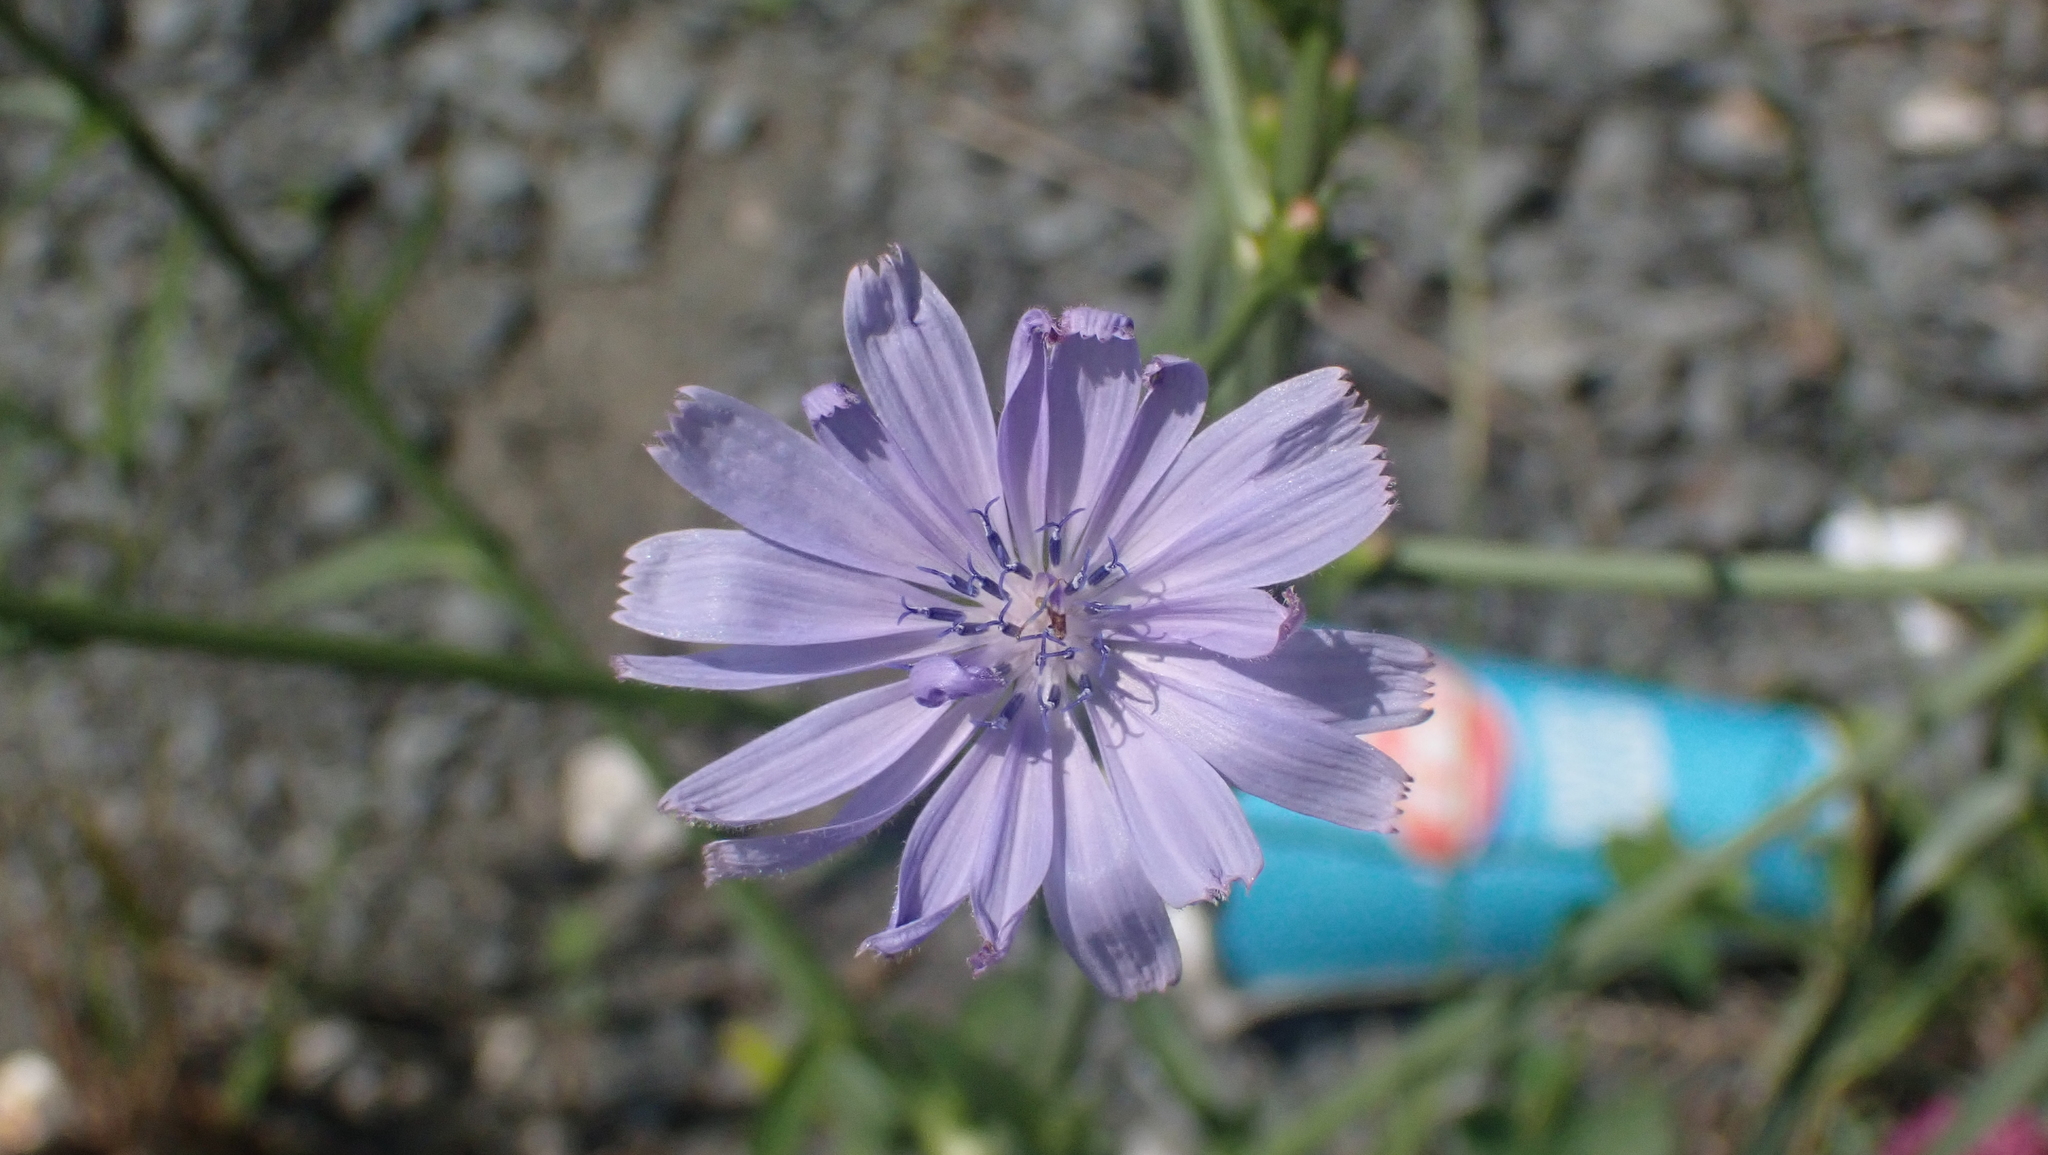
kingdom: Plantae
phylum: Tracheophyta
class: Magnoliopsida
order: Asterales
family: Asteraceae
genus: Cichorium
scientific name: Cichorium intybus
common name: Chicory
